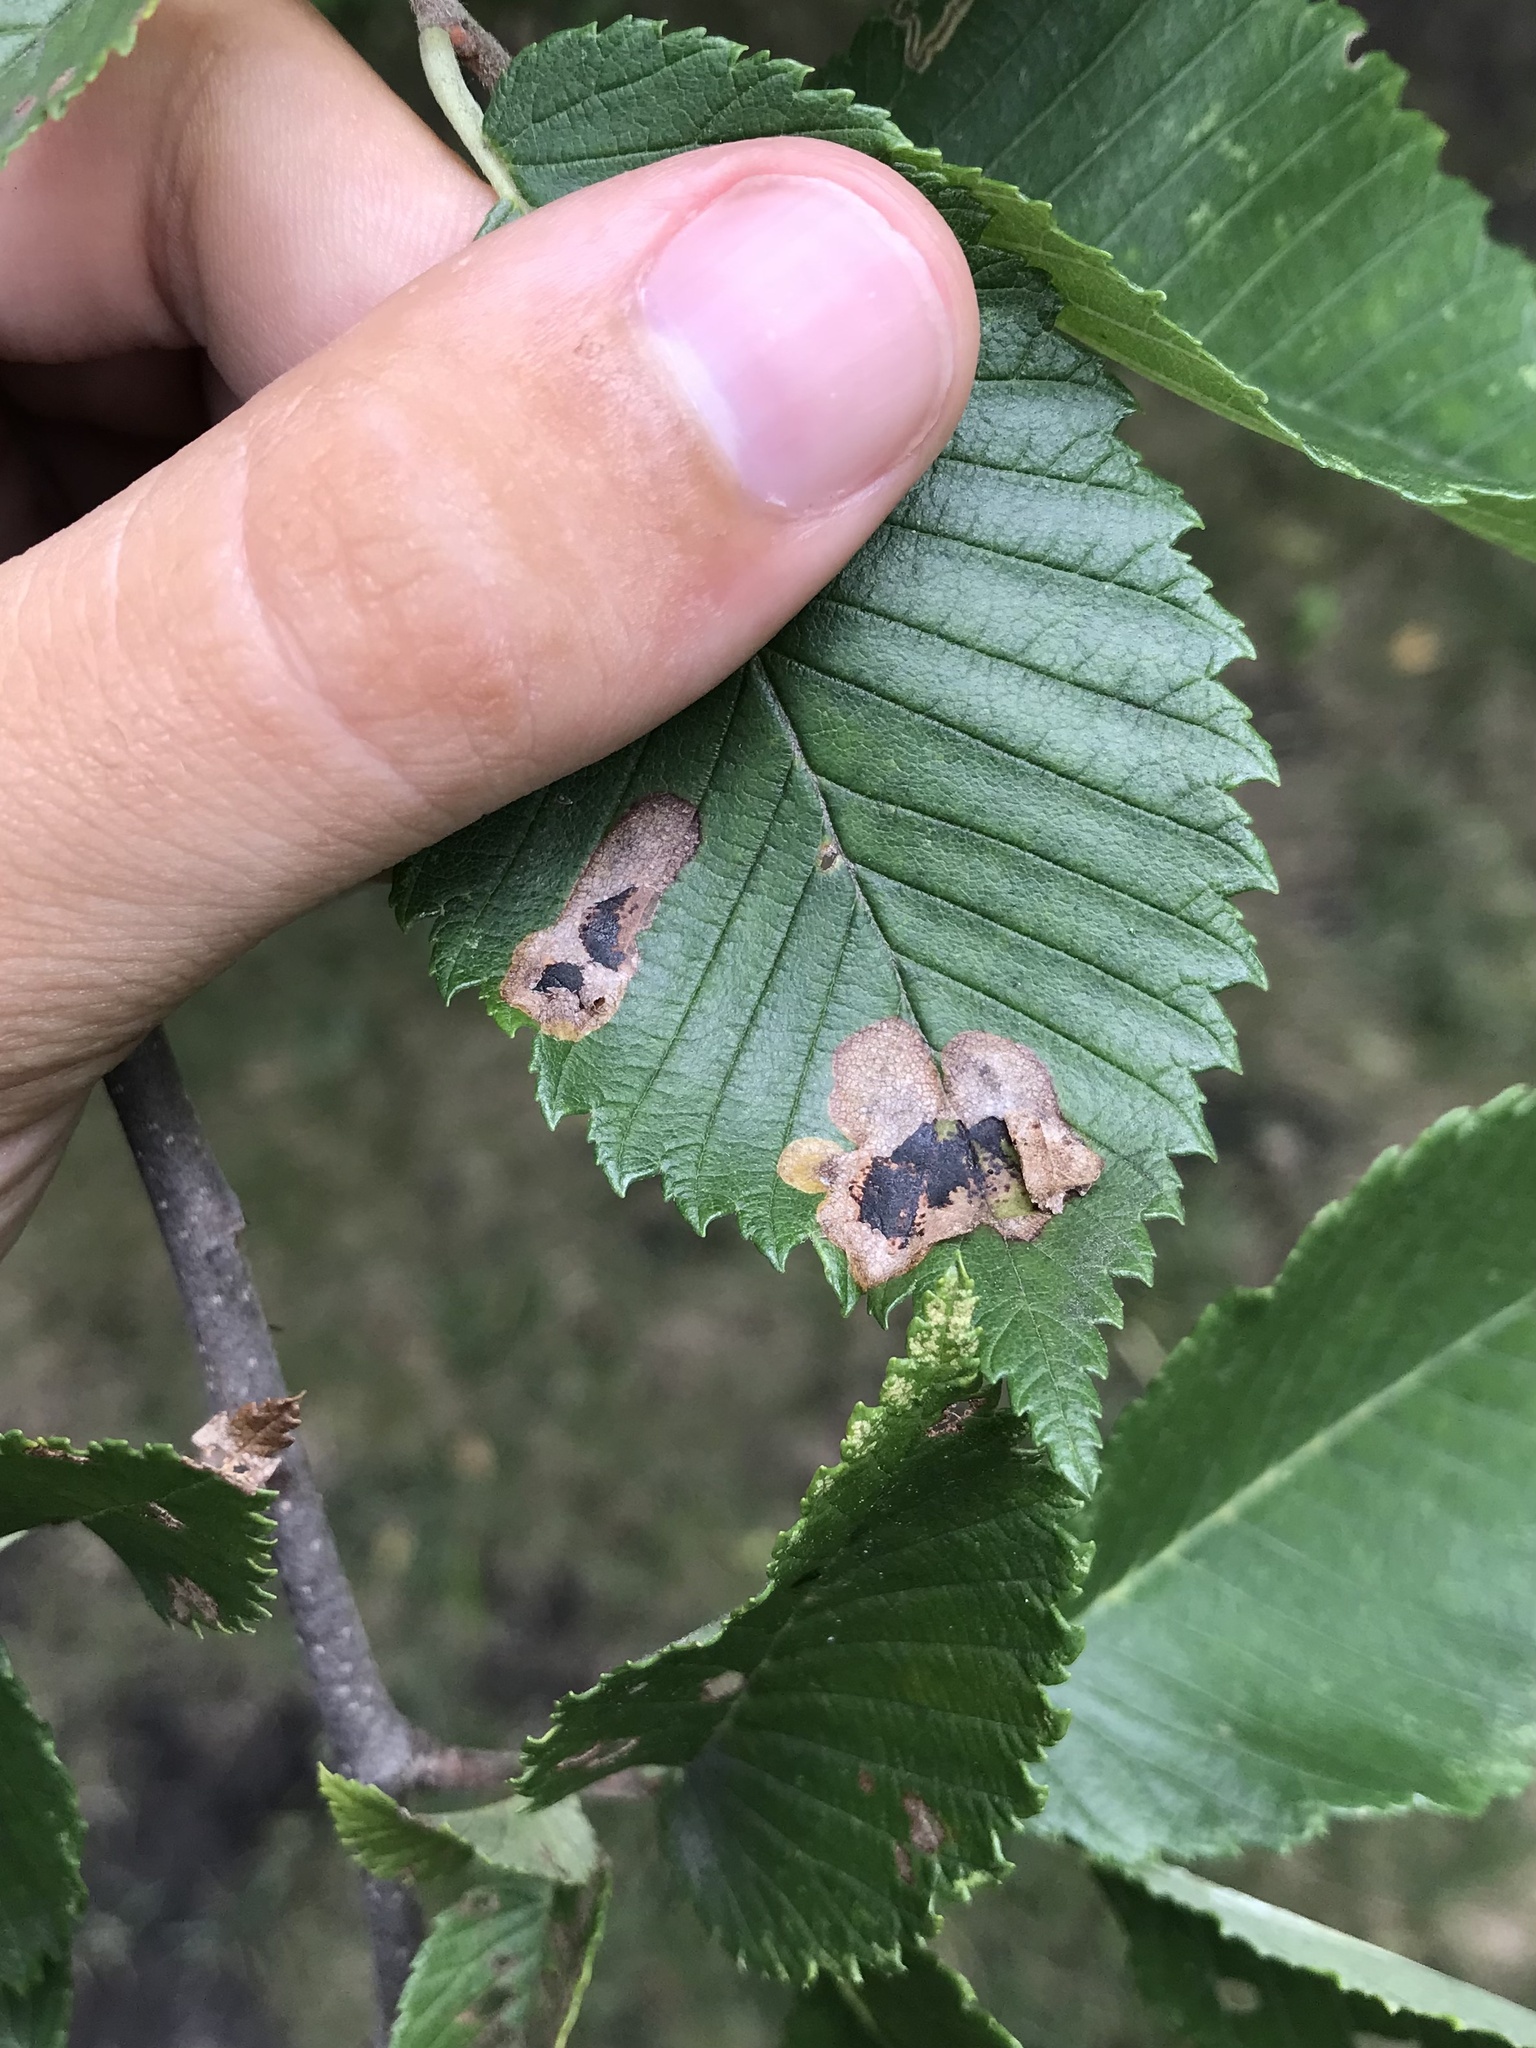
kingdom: Animalia
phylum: Arthropoda
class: Insecta
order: Lepidoptera
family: Gracillariidae
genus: Cameraria
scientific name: Cameraria ulmella
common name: Elm leafminer
